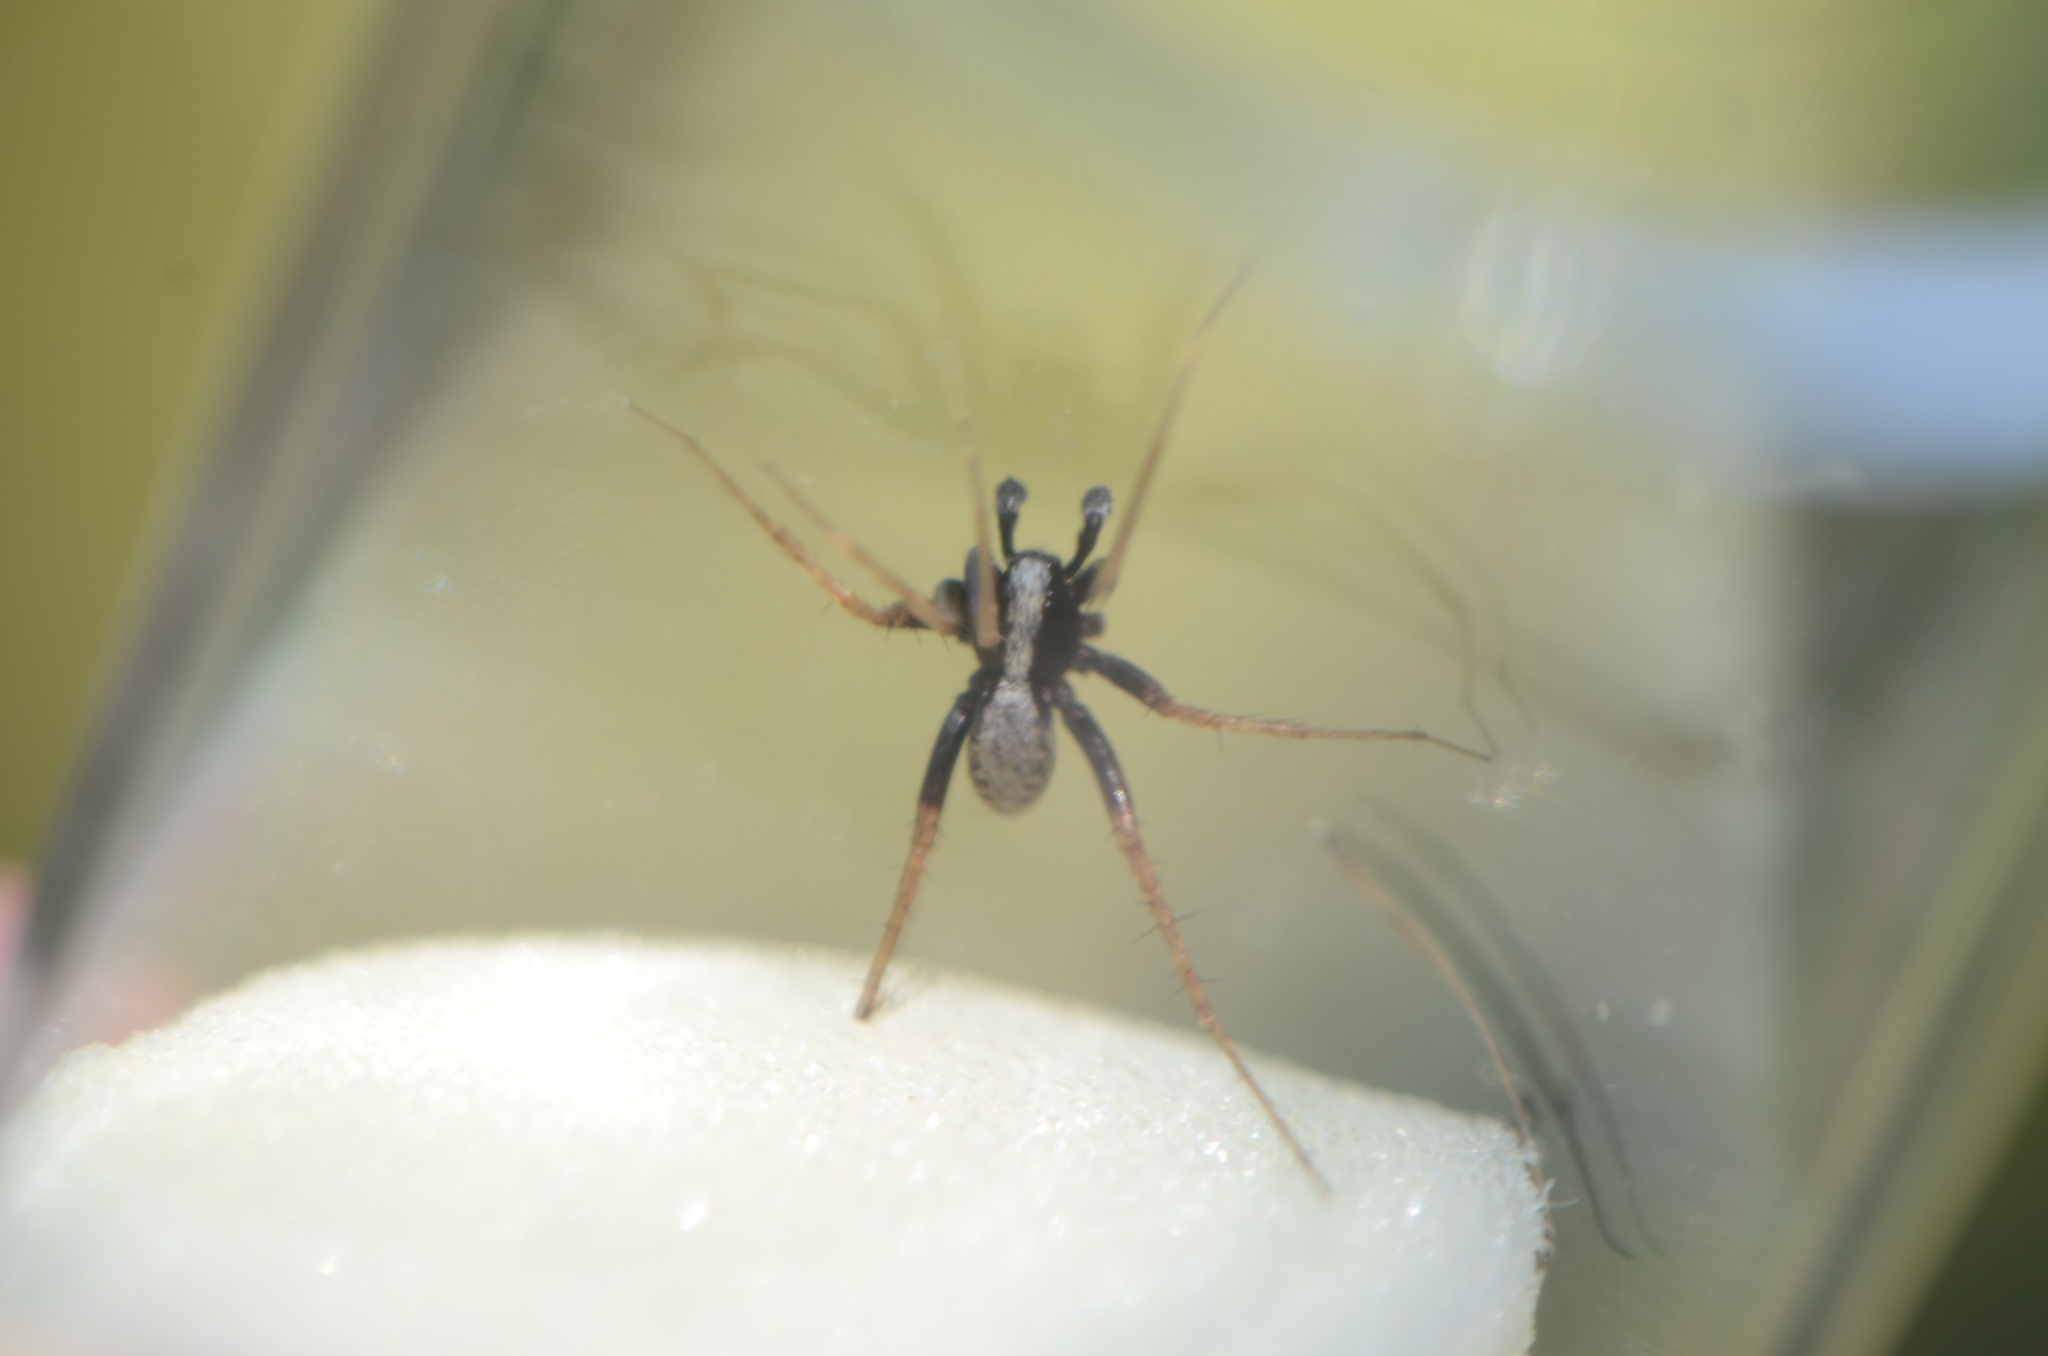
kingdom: Animalia
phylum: Arthropoda
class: Arachnida
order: Araneae
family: Lycosidae
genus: Pardosa
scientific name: Pardosa
